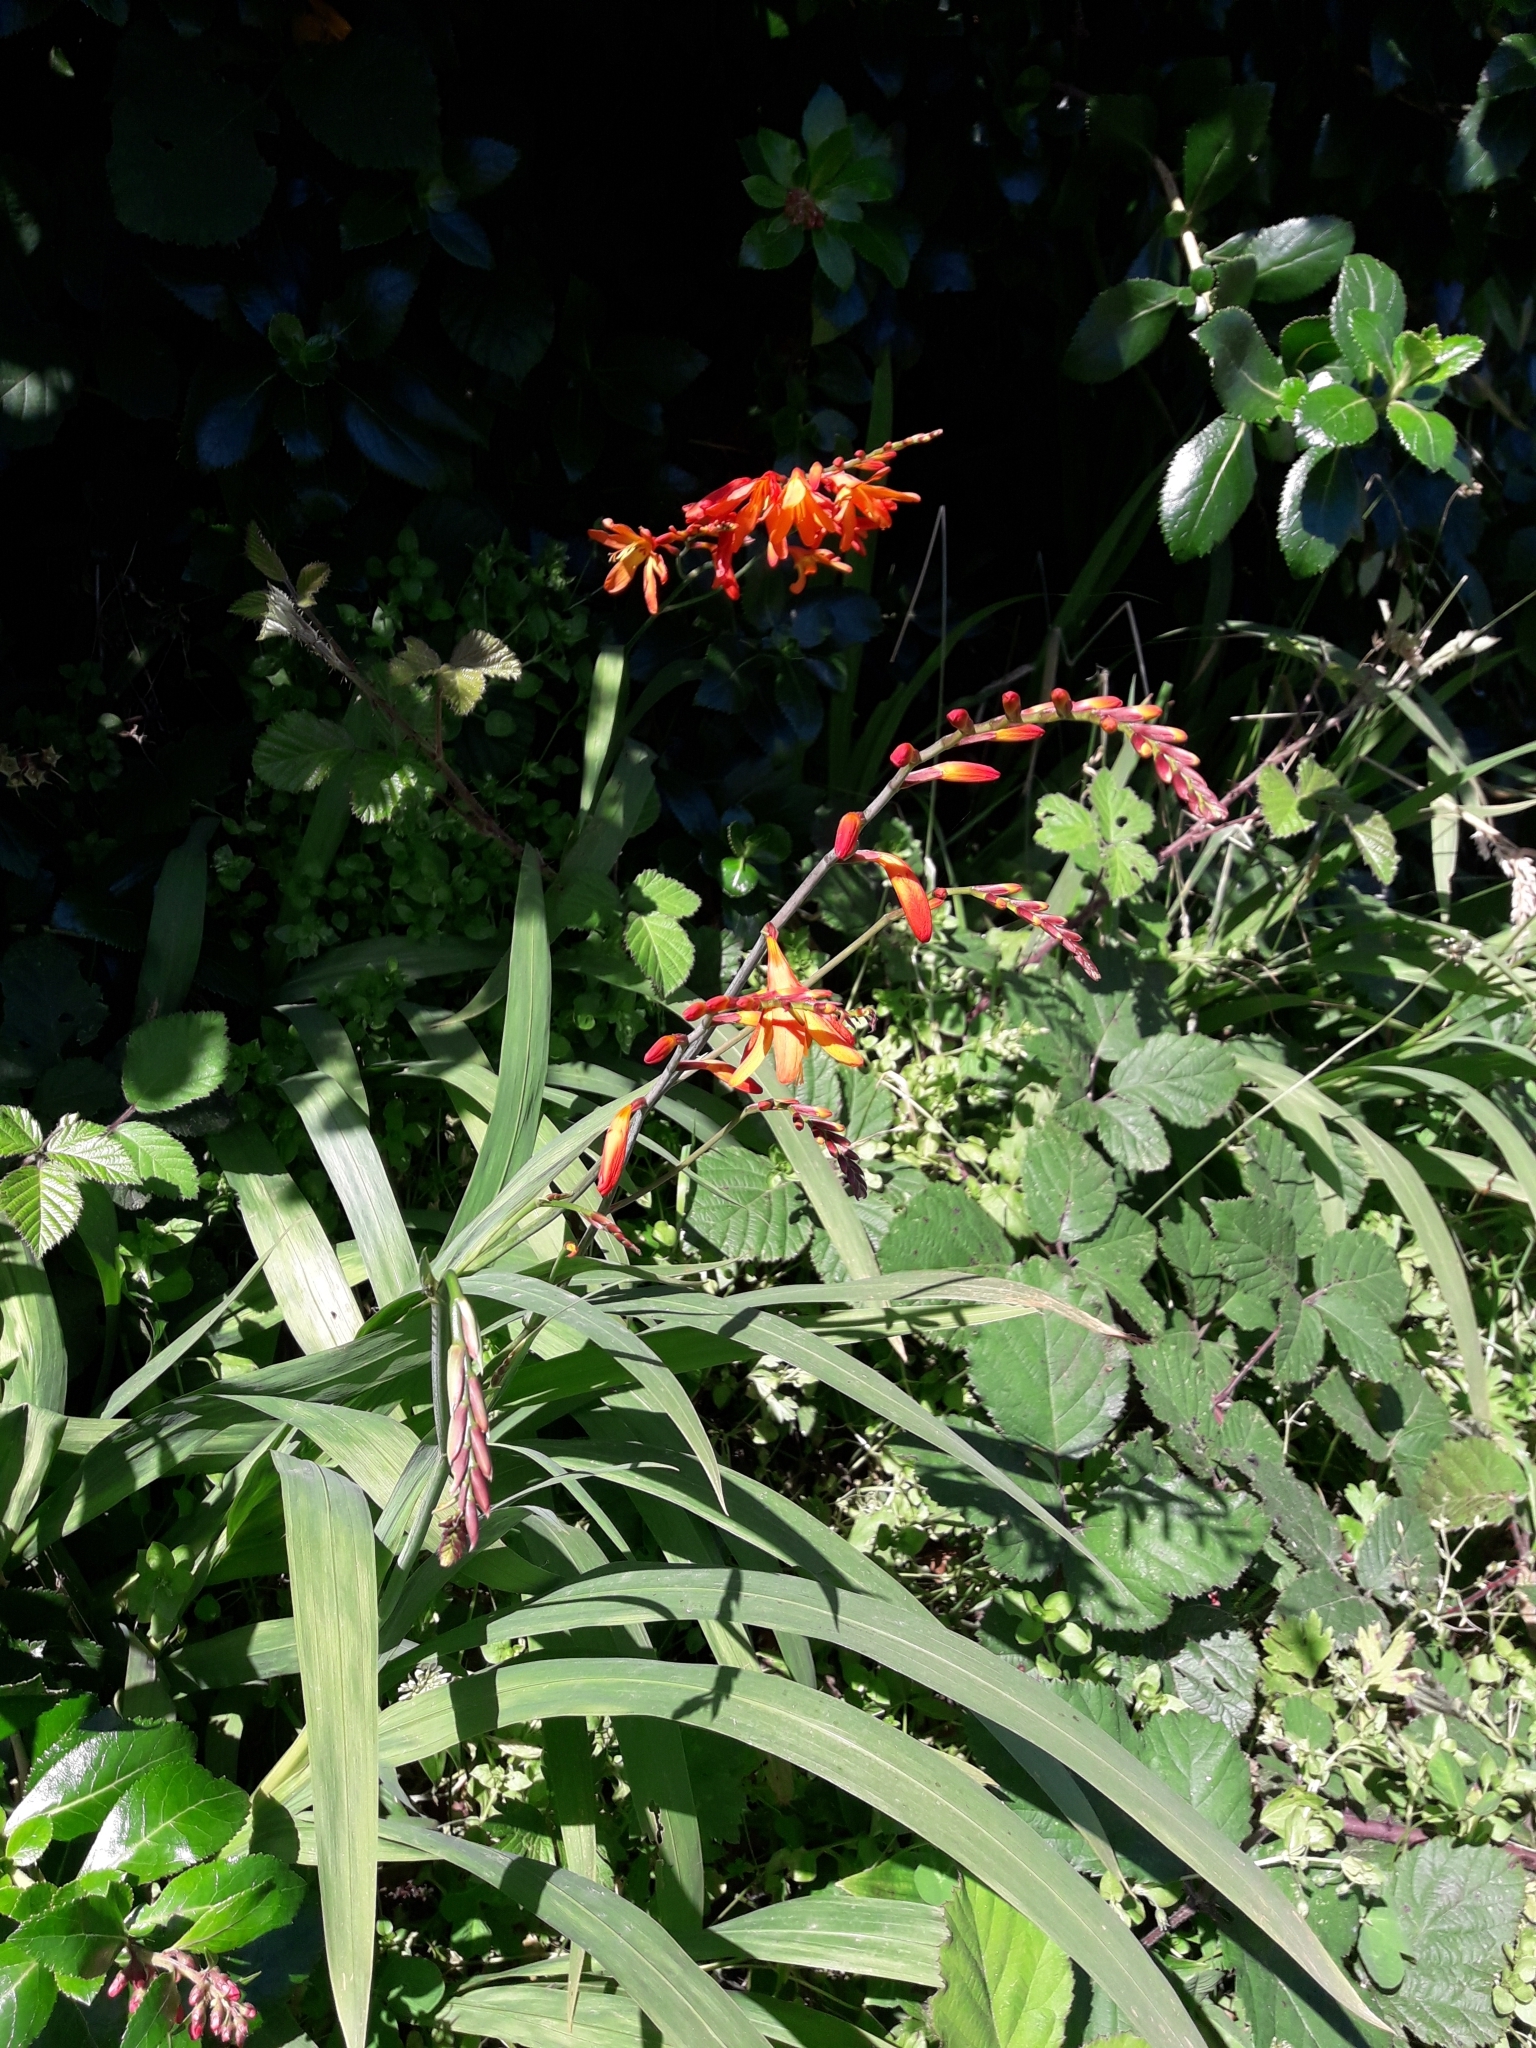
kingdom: Plantae
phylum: Tracheophyta
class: Liliopsida
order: Asparagales
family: Iridaceae
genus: Crocosmia
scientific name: Crocosmia crocosmiiflora
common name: Montbretia
